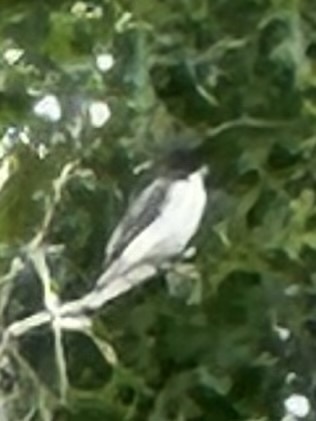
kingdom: Animalia
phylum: Chordata
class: Aves
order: Passeriformes
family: Tyrannidae
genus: Tyrannus
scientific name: Tyrannus tyrannus
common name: Eastern kingbird
